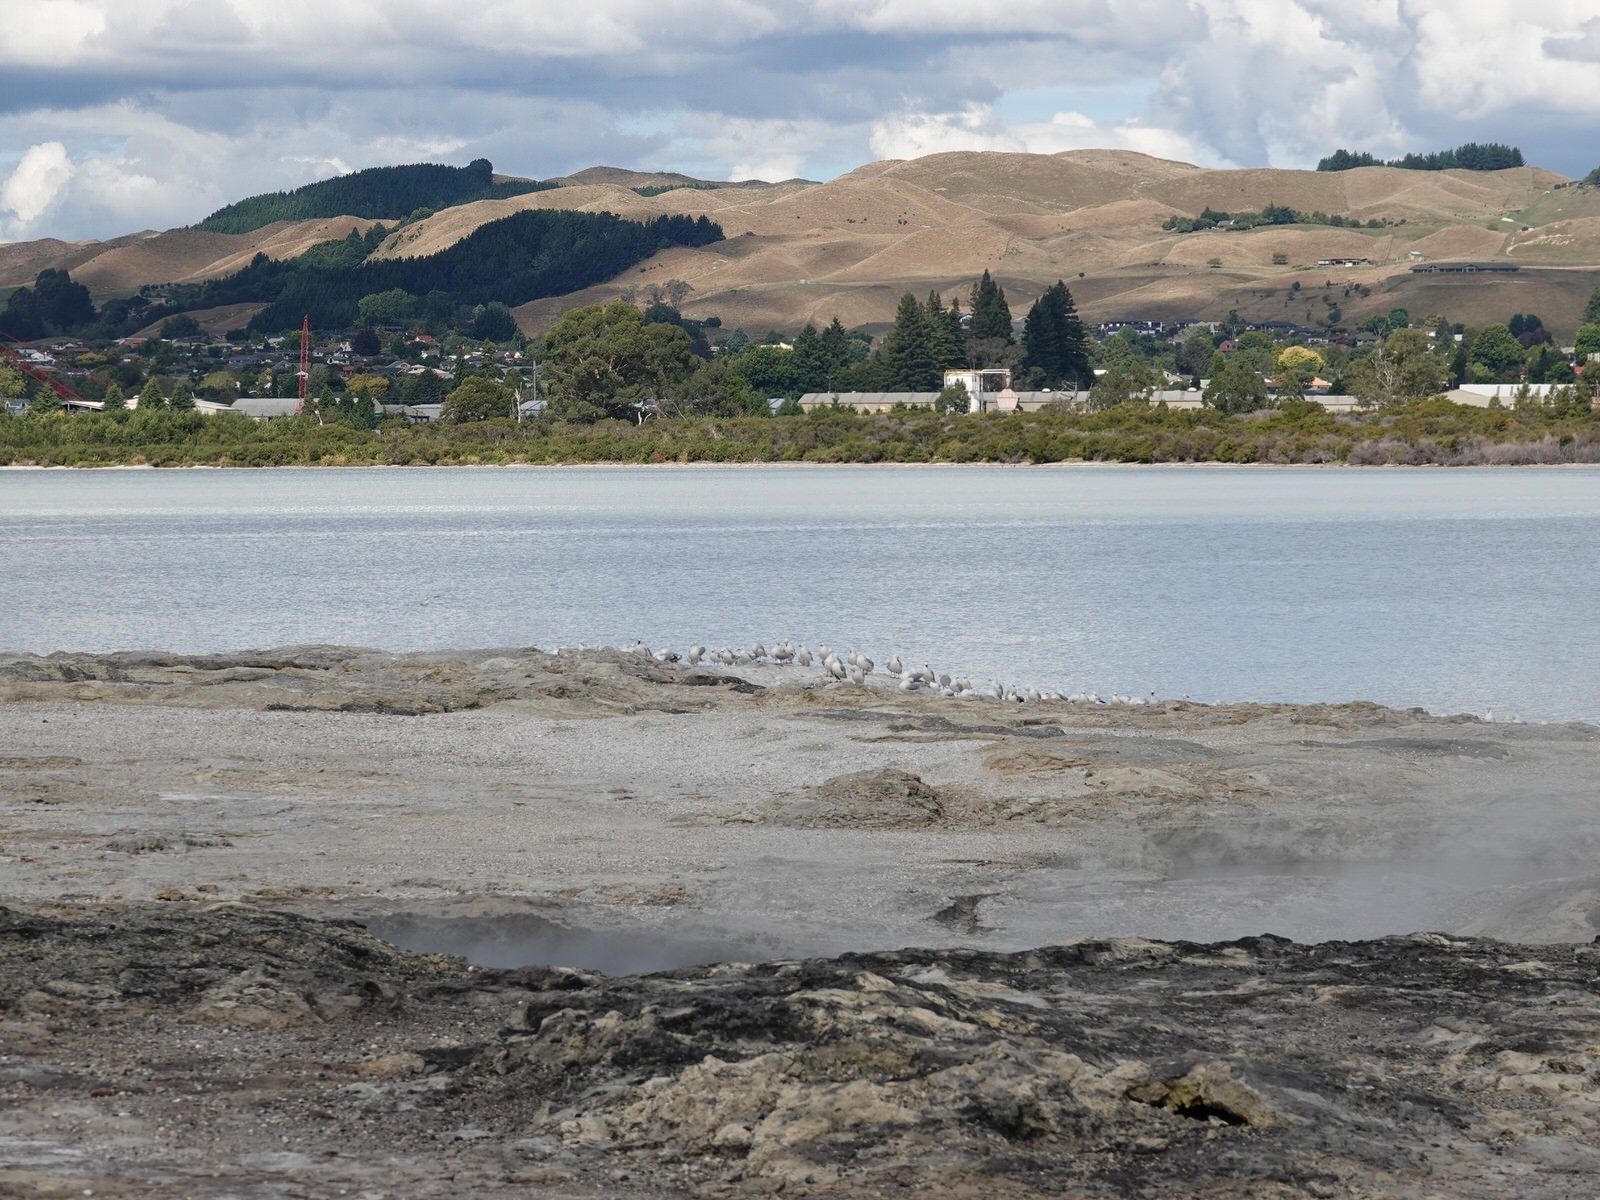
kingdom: Animalia
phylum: Chordata
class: Aves
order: Charadriiformes
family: Laridae
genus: Chroicocephalus
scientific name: Chroicocephalus novaehollandiae
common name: Silver gull
